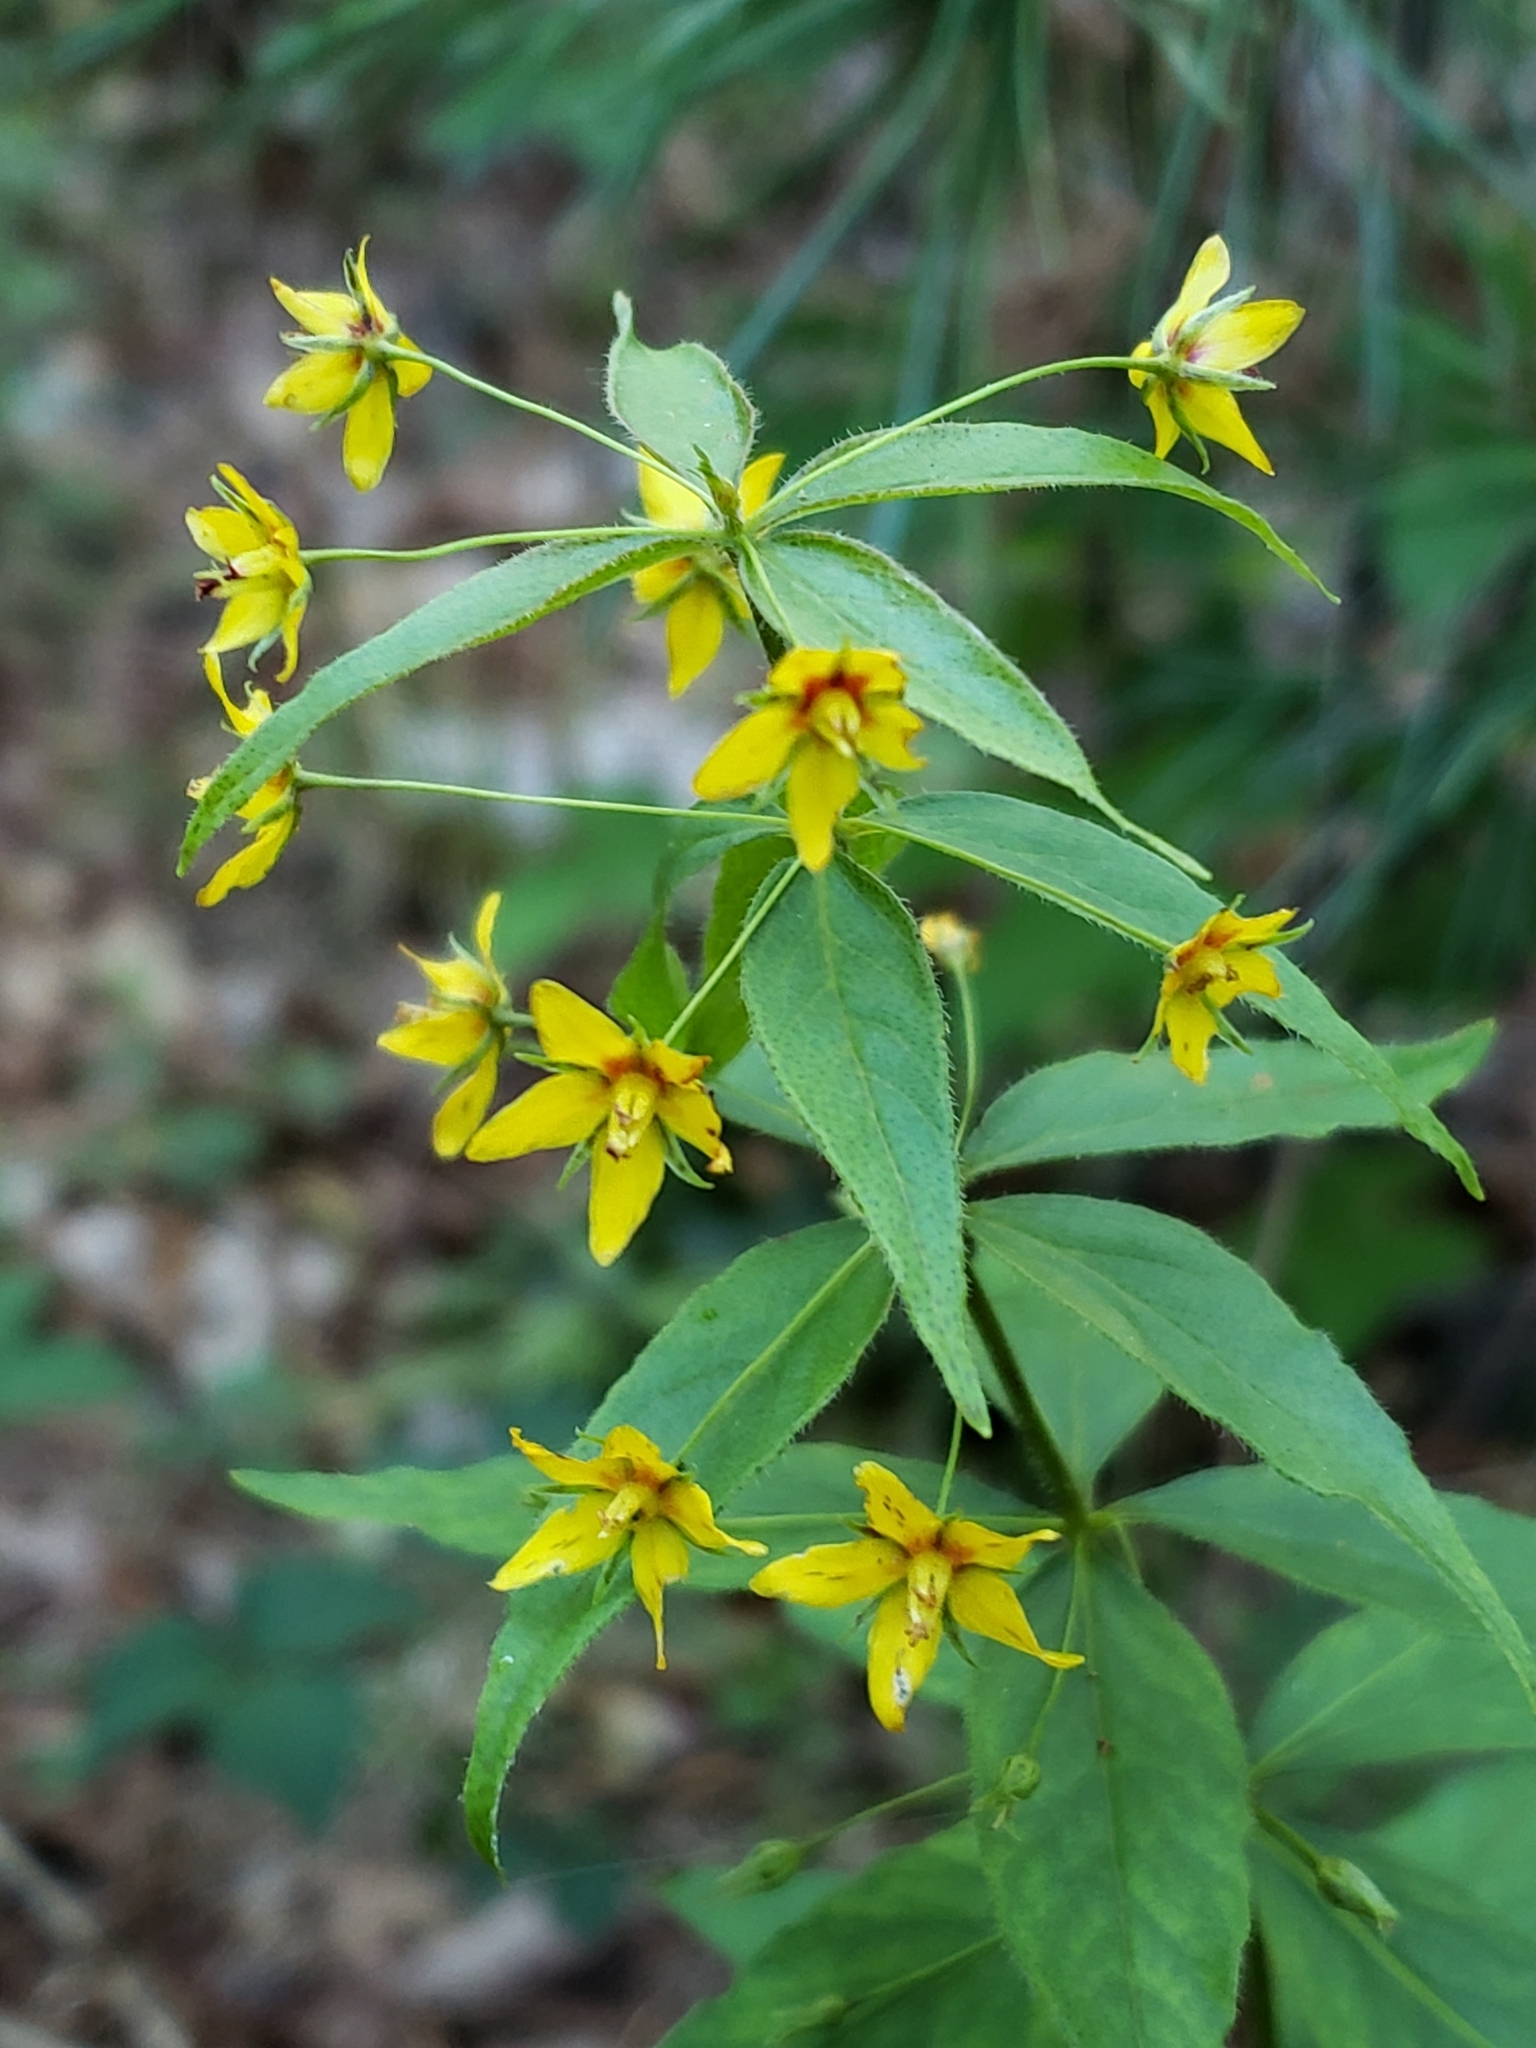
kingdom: Plantae
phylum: Tracheophyta
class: Magnoliopsida
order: Ericales
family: Primulaceae
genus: Lysimachia
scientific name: Lysimachia quadrifolia
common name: Whorled loosestrife
